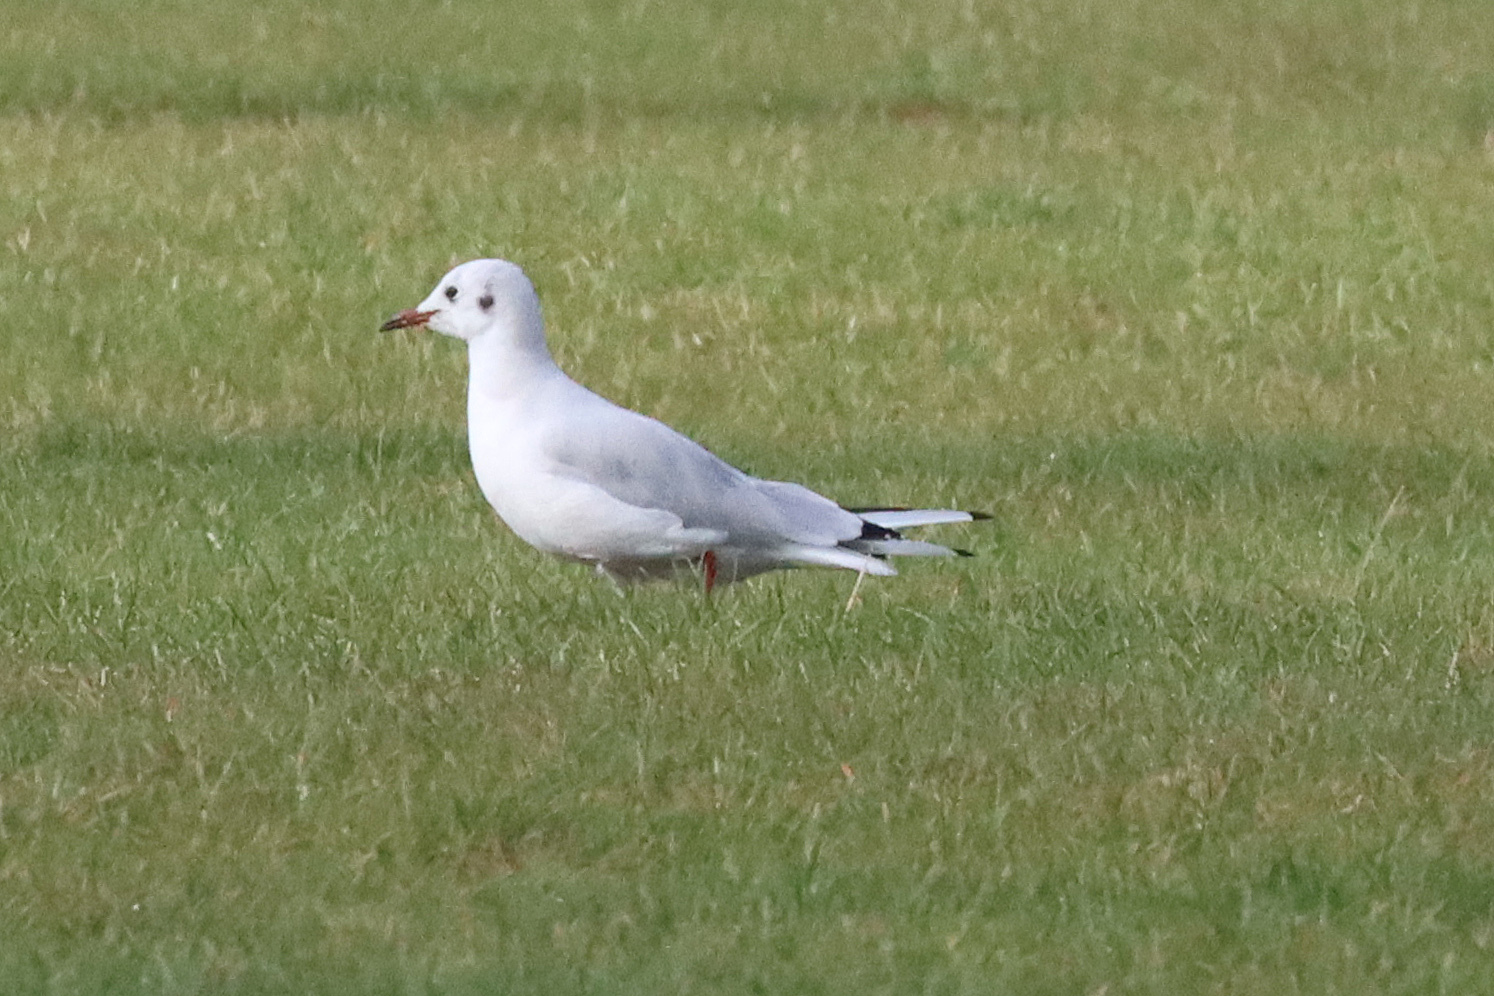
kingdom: Animalia
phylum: Chordata
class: Aves
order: Charadriiformes
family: Laridae
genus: Chroicocephalus
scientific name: Chroicocephalus ridibundus
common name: Black-headed gull
